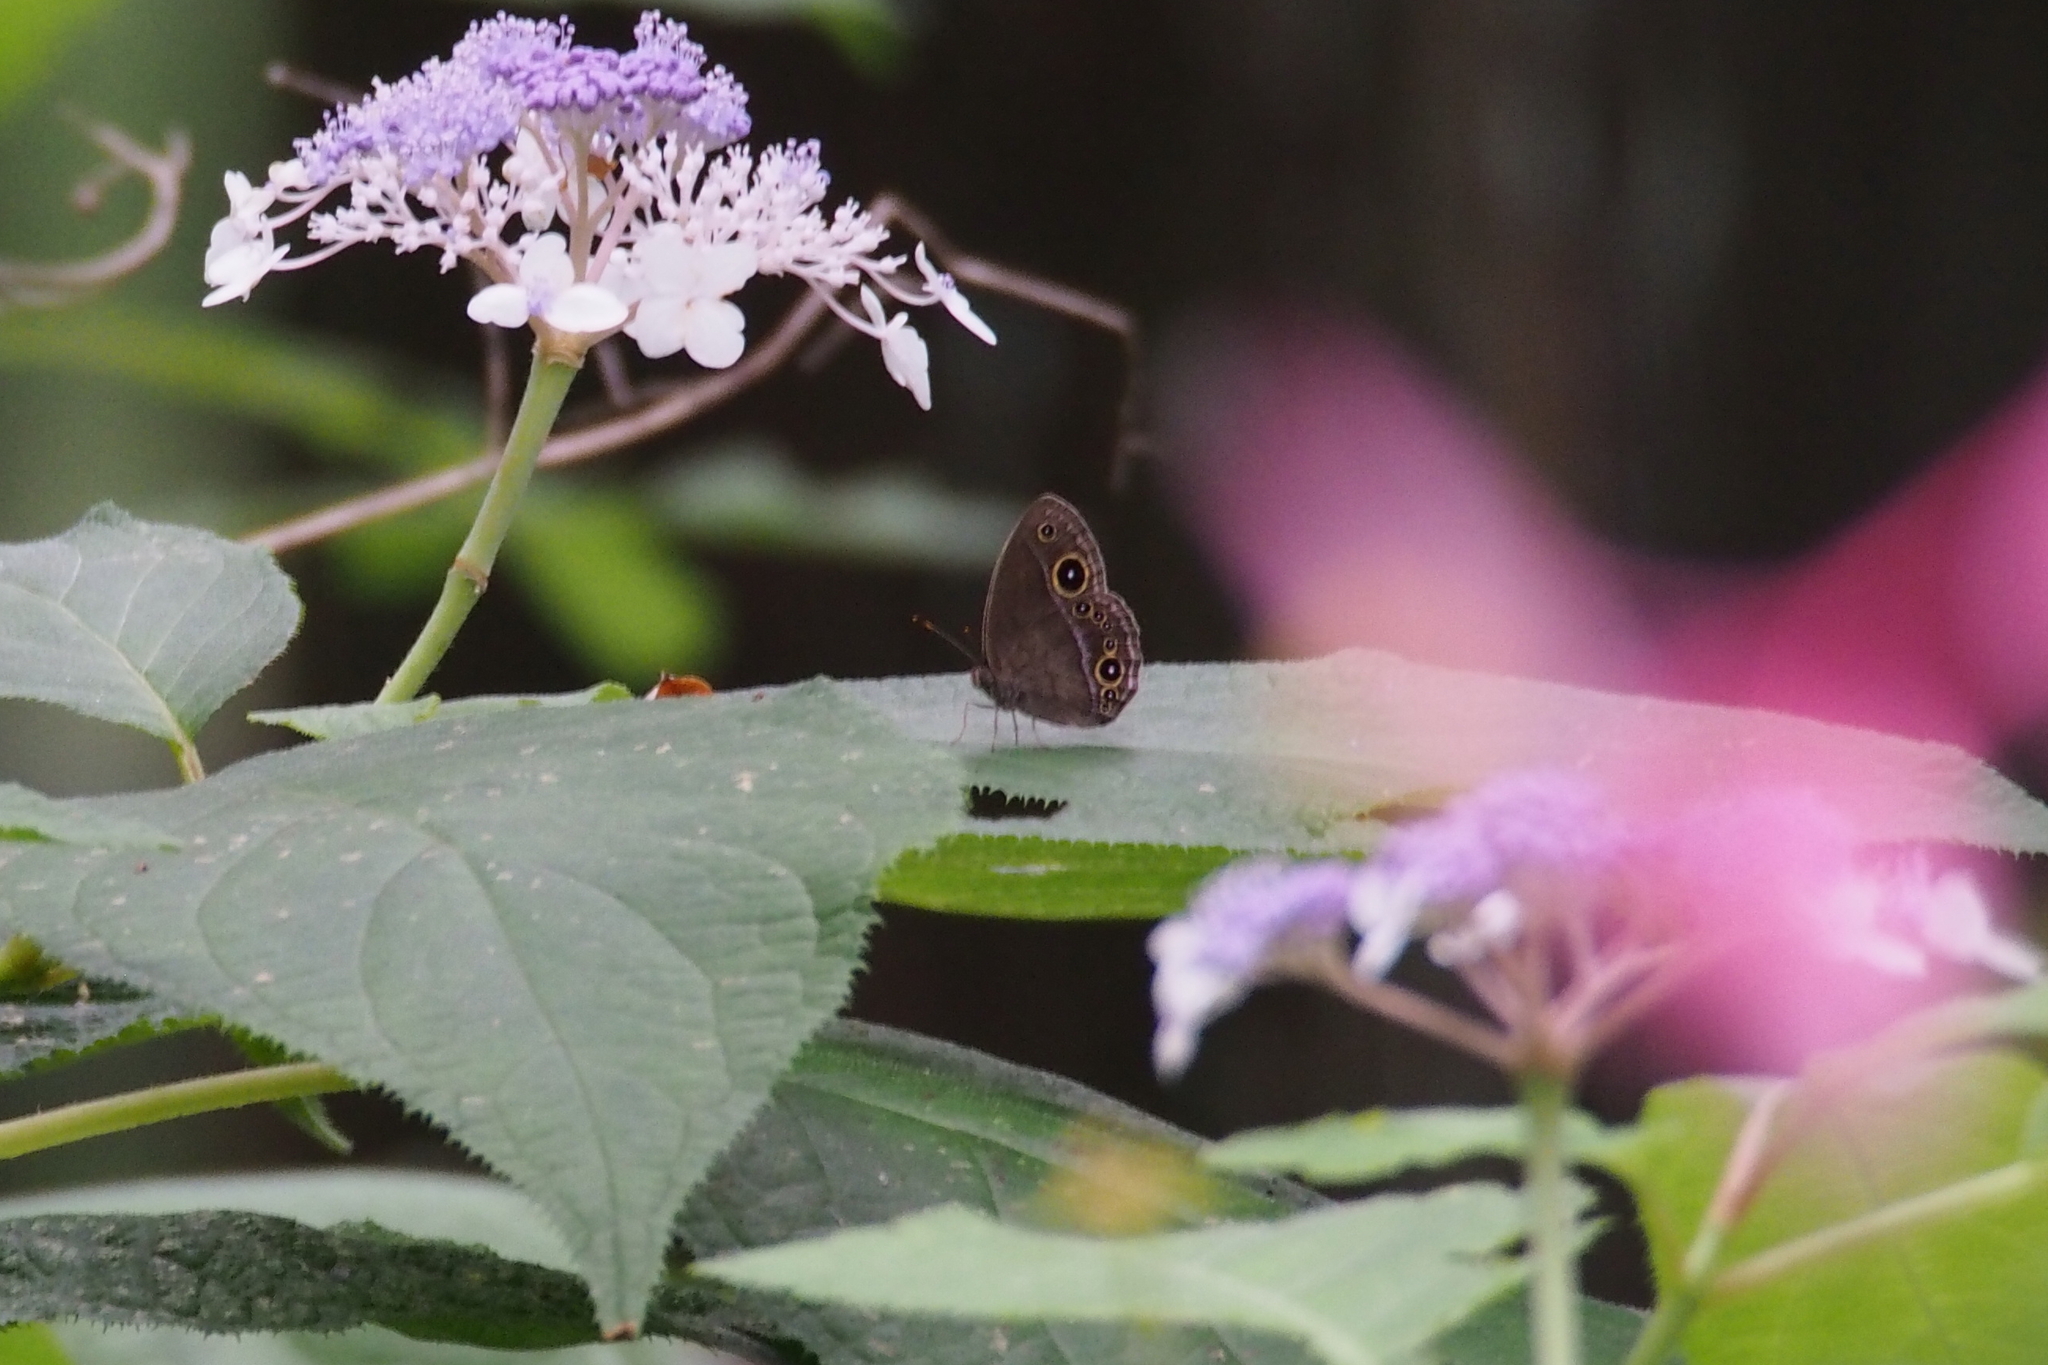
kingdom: Animalia
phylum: Arthropoda
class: Insecta
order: Lepidoptera
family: Nymphalidae
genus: Mycalesis
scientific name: Mycalesis francisca
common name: Lilacine bushbrown
